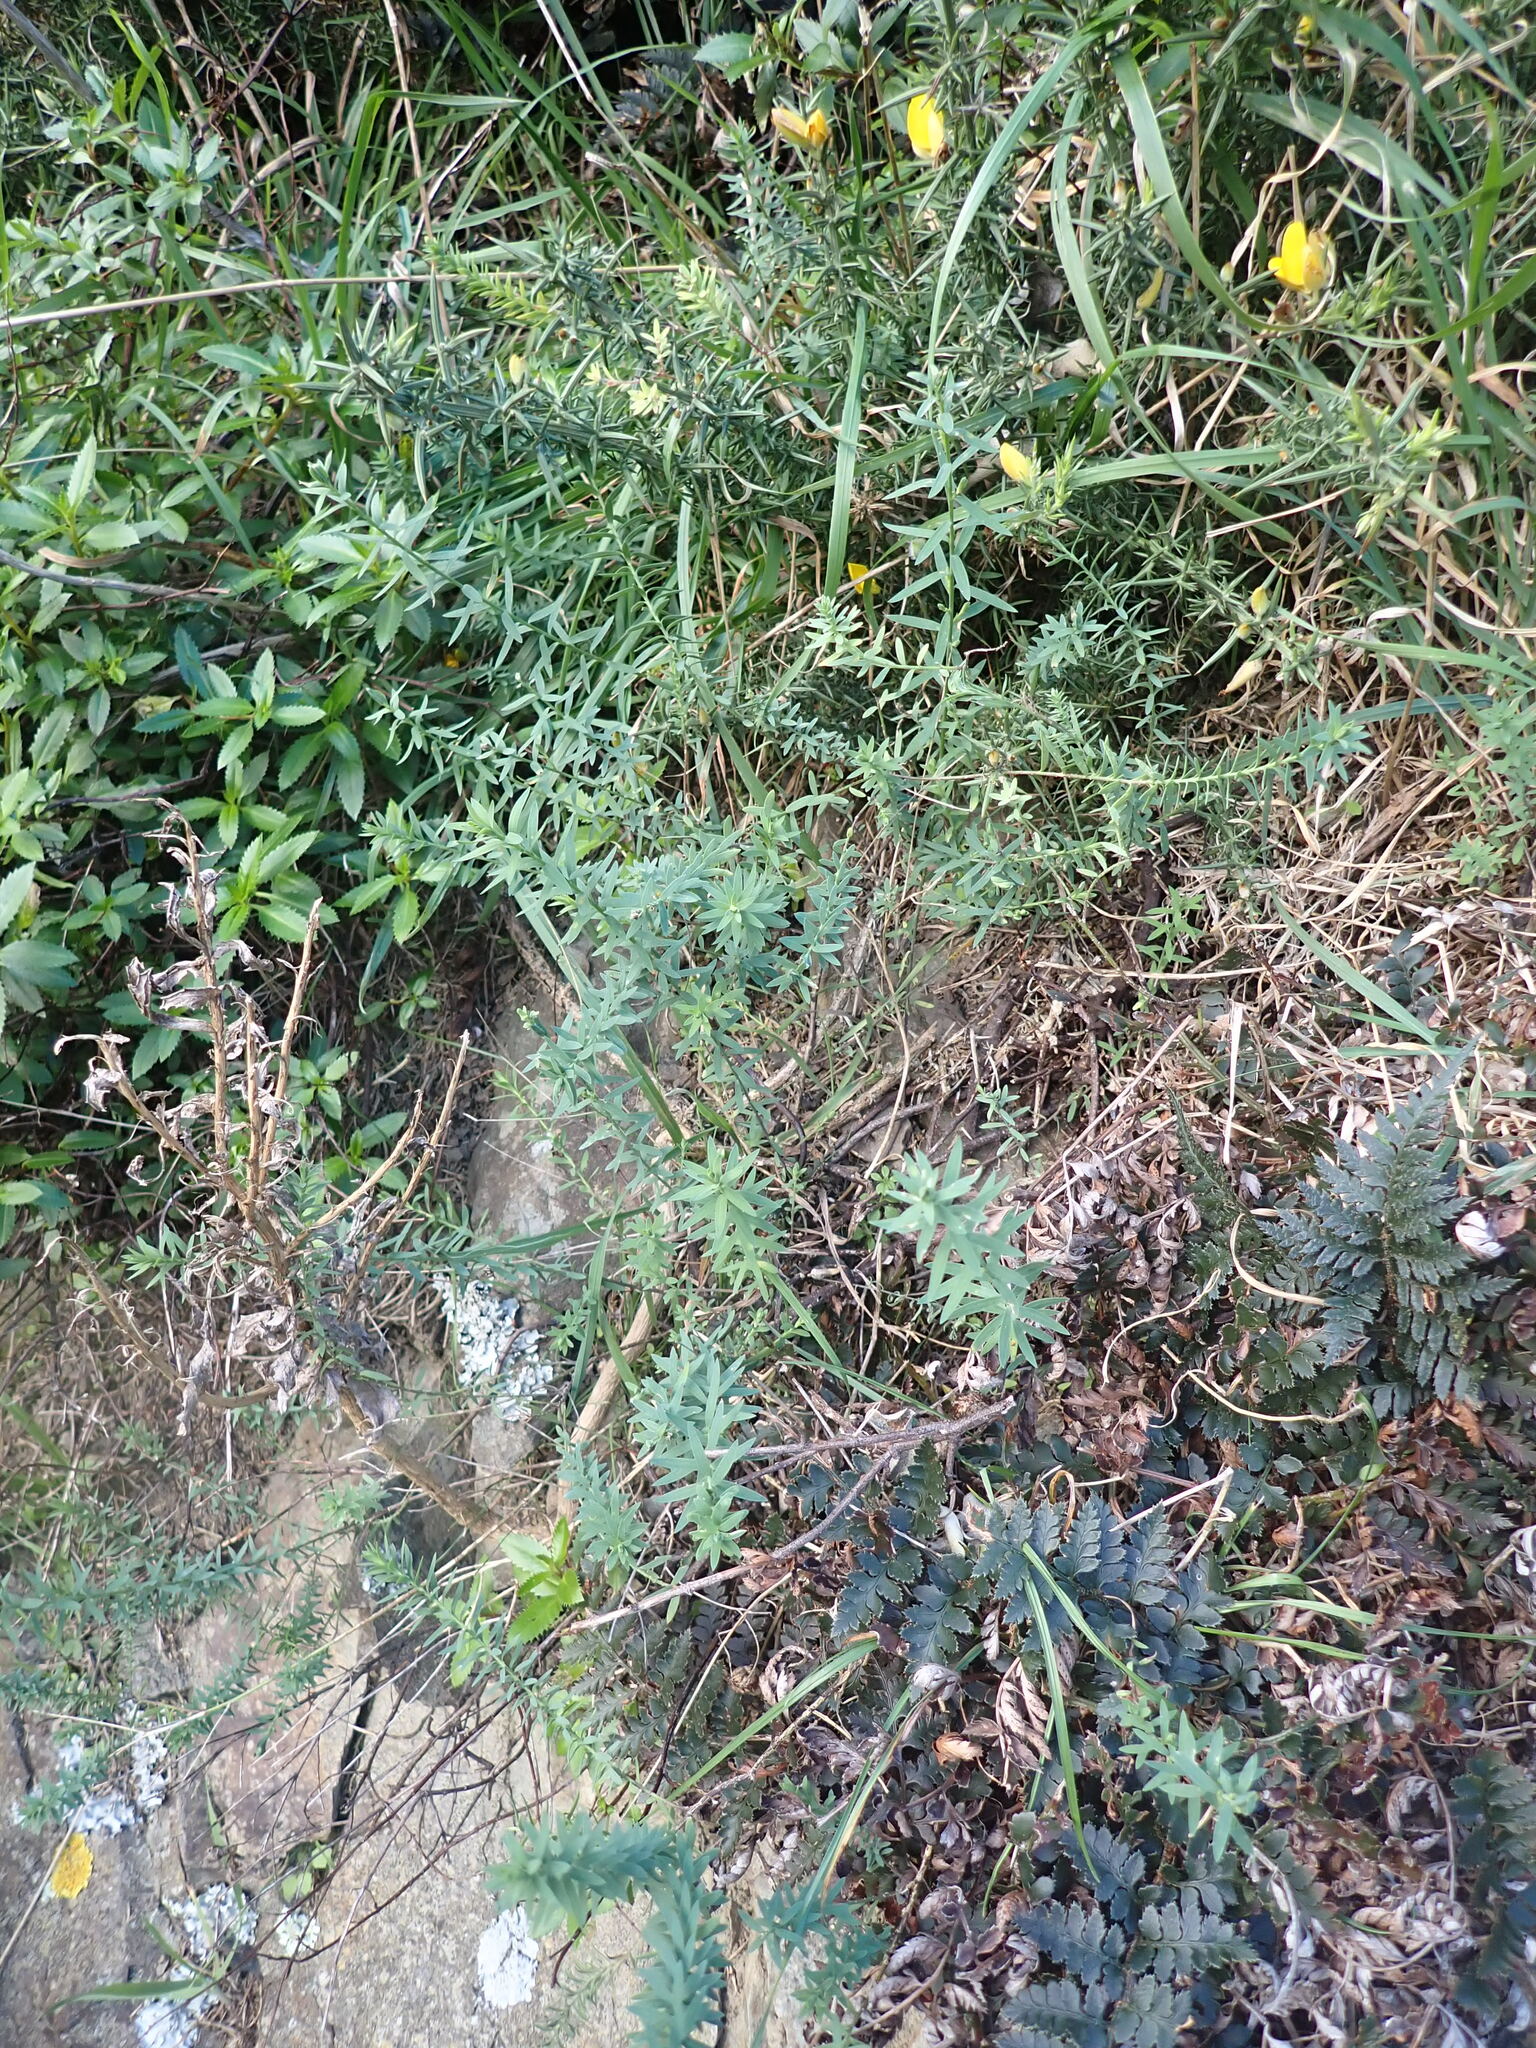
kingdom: Plantae
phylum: Tracheophyta
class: Magnoliopsida
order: Malpighiales
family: Linaceae
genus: Linum
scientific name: Linum monogynum
